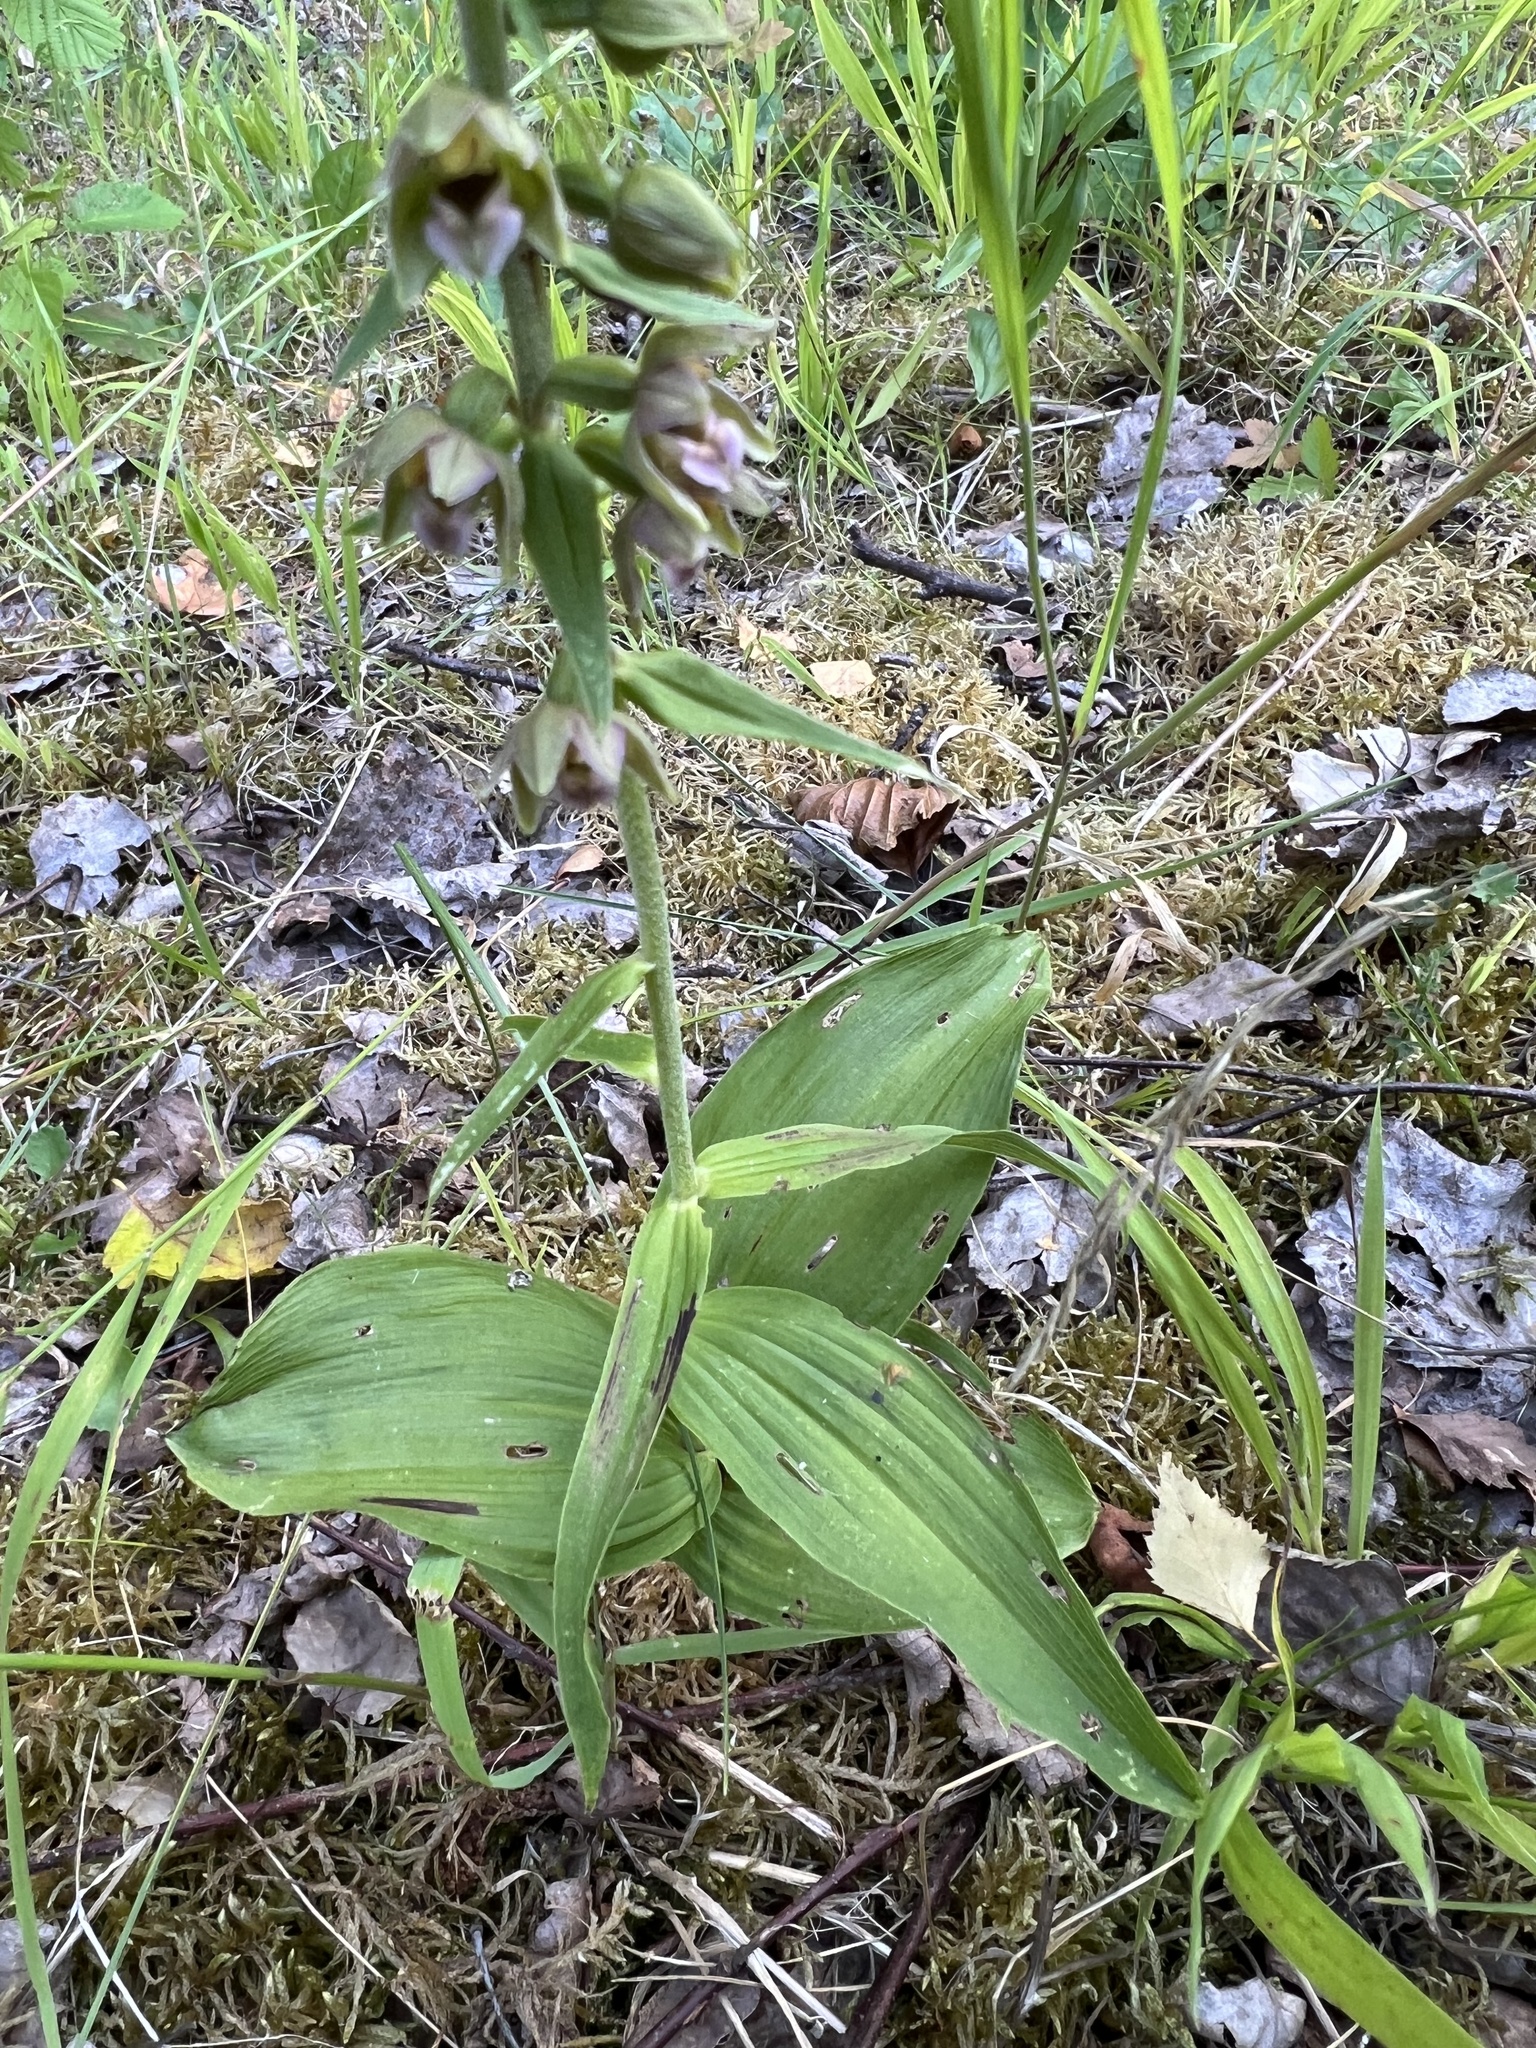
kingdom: Plantae
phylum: Tracheophyta
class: Liliopsida
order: Asparagales
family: Orchidaceae
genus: Epipactis
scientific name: Epipactis helleborine
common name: Broad-leaved helleborine
